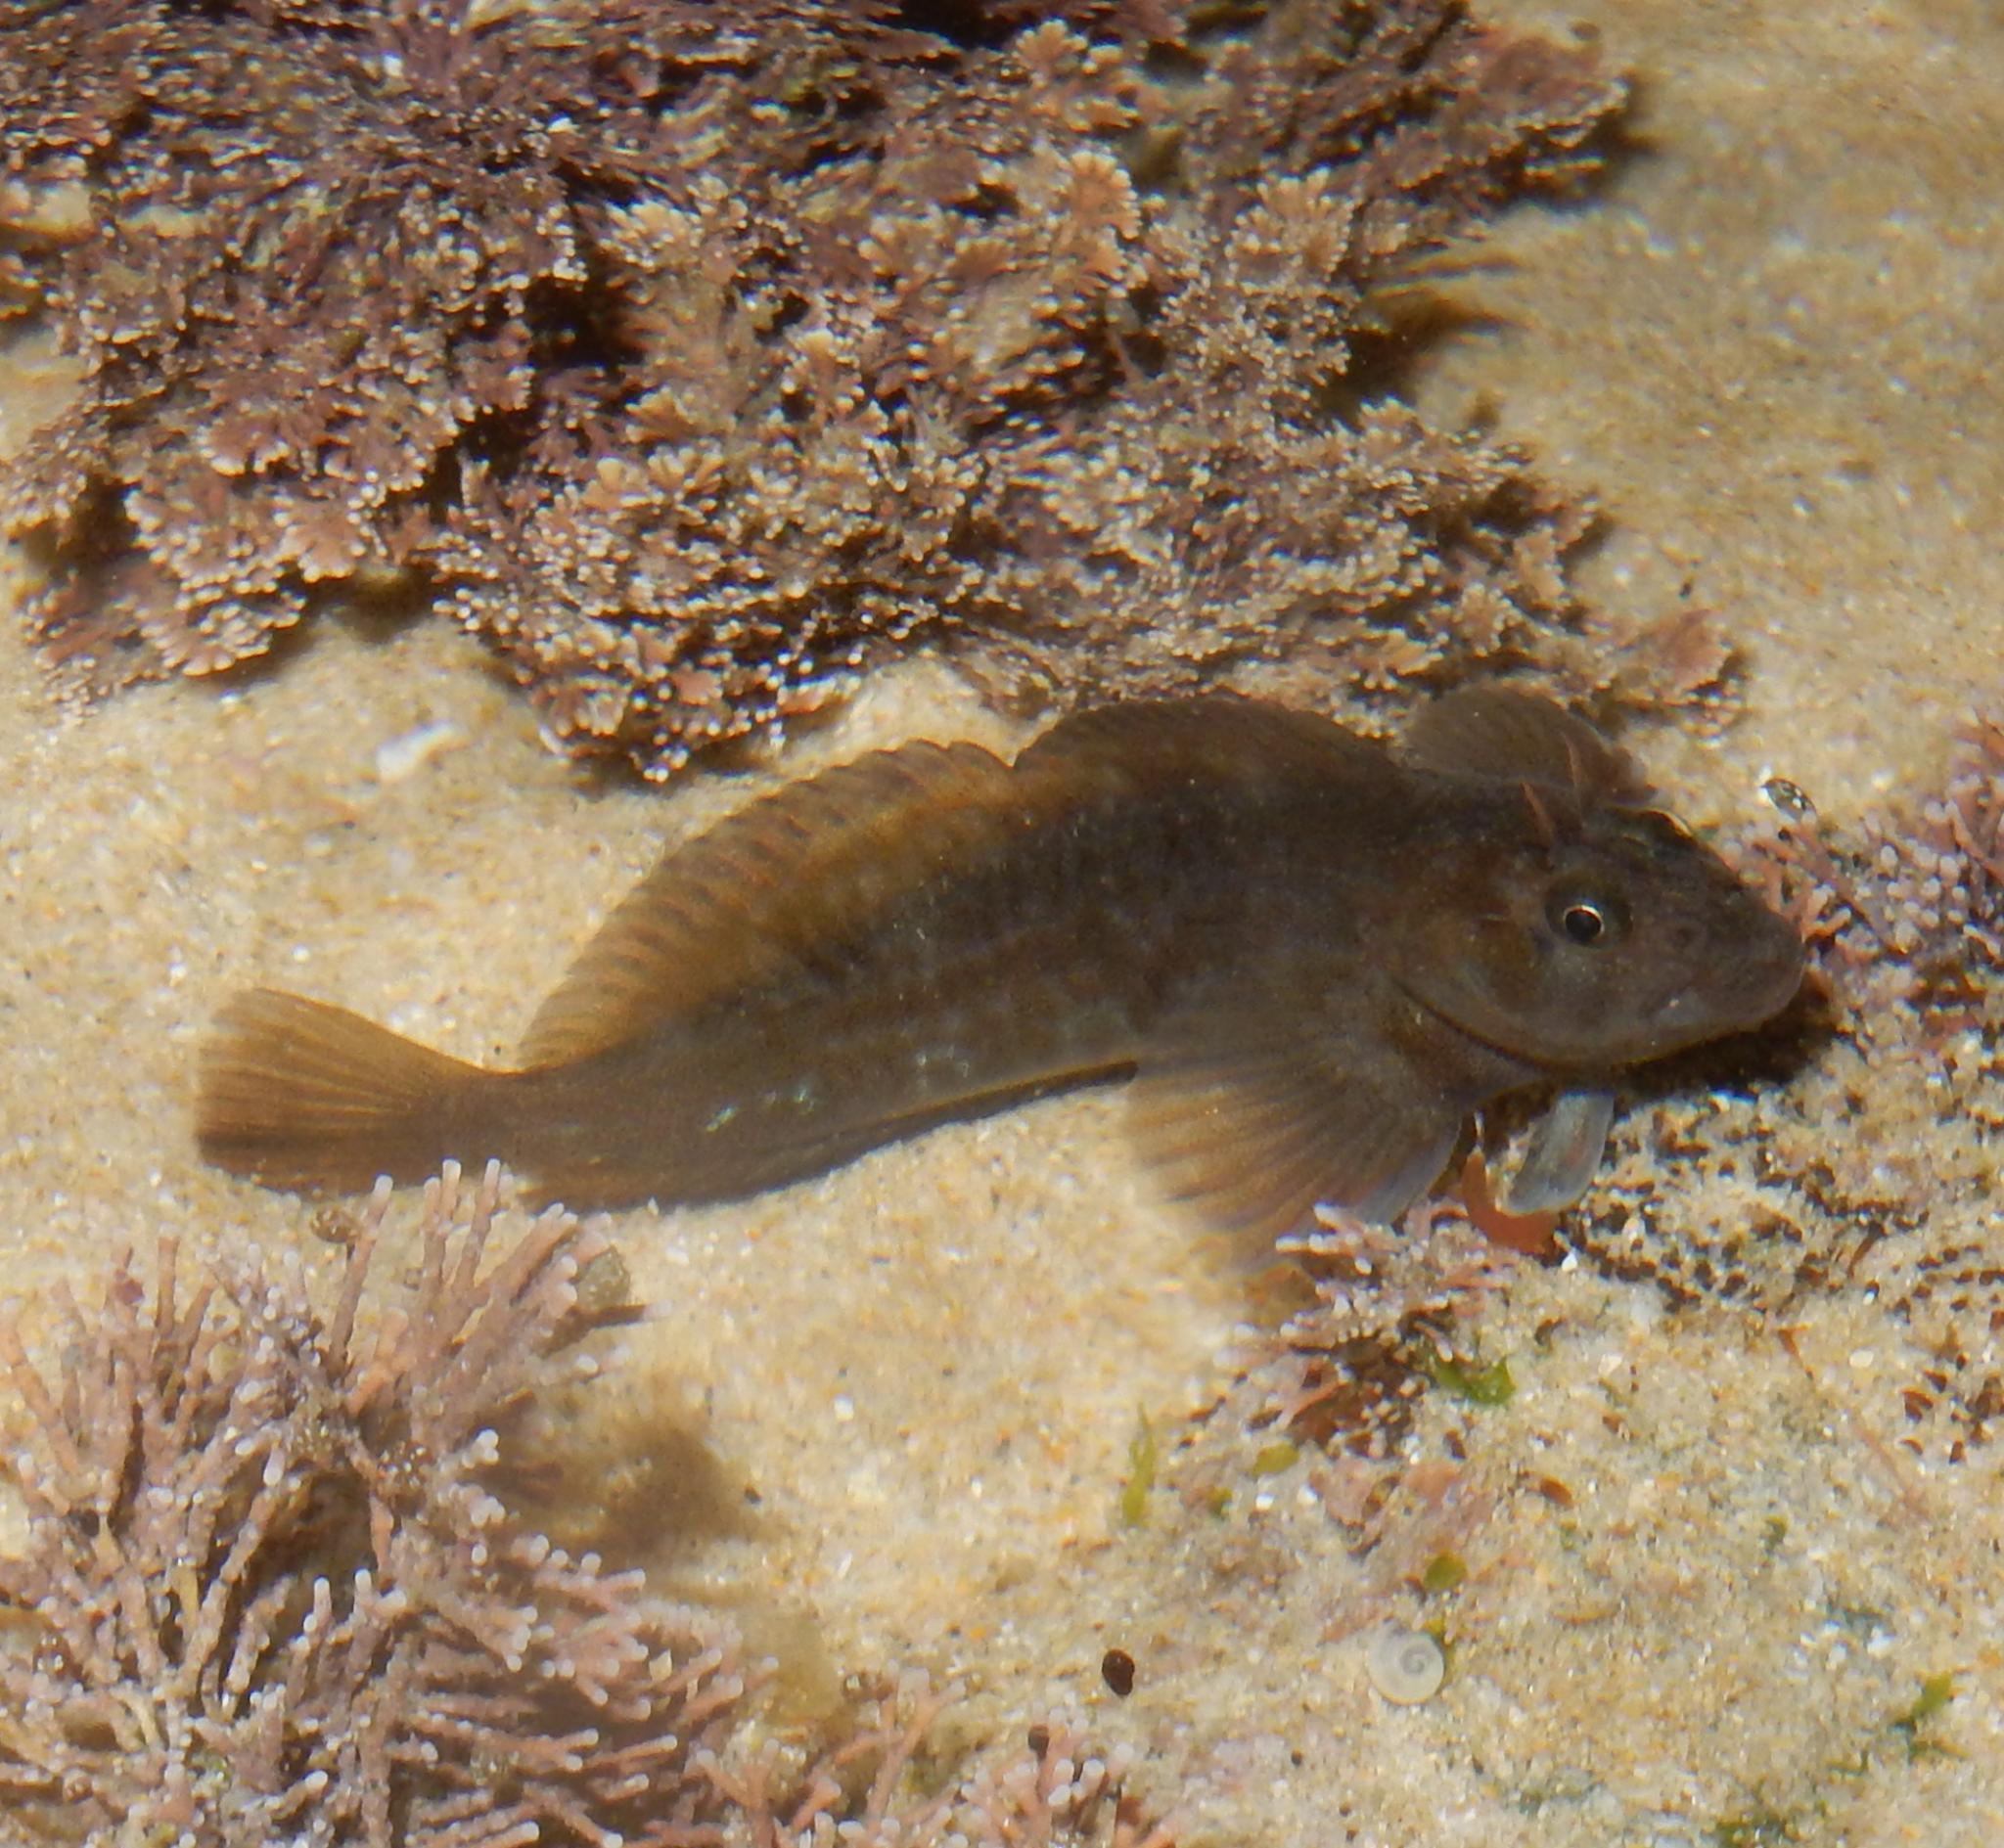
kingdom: Animalia
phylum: Chordata
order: Perciformes
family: Blenniidae
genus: Parablennius
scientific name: Parablennius cornutus
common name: Horned blenny
